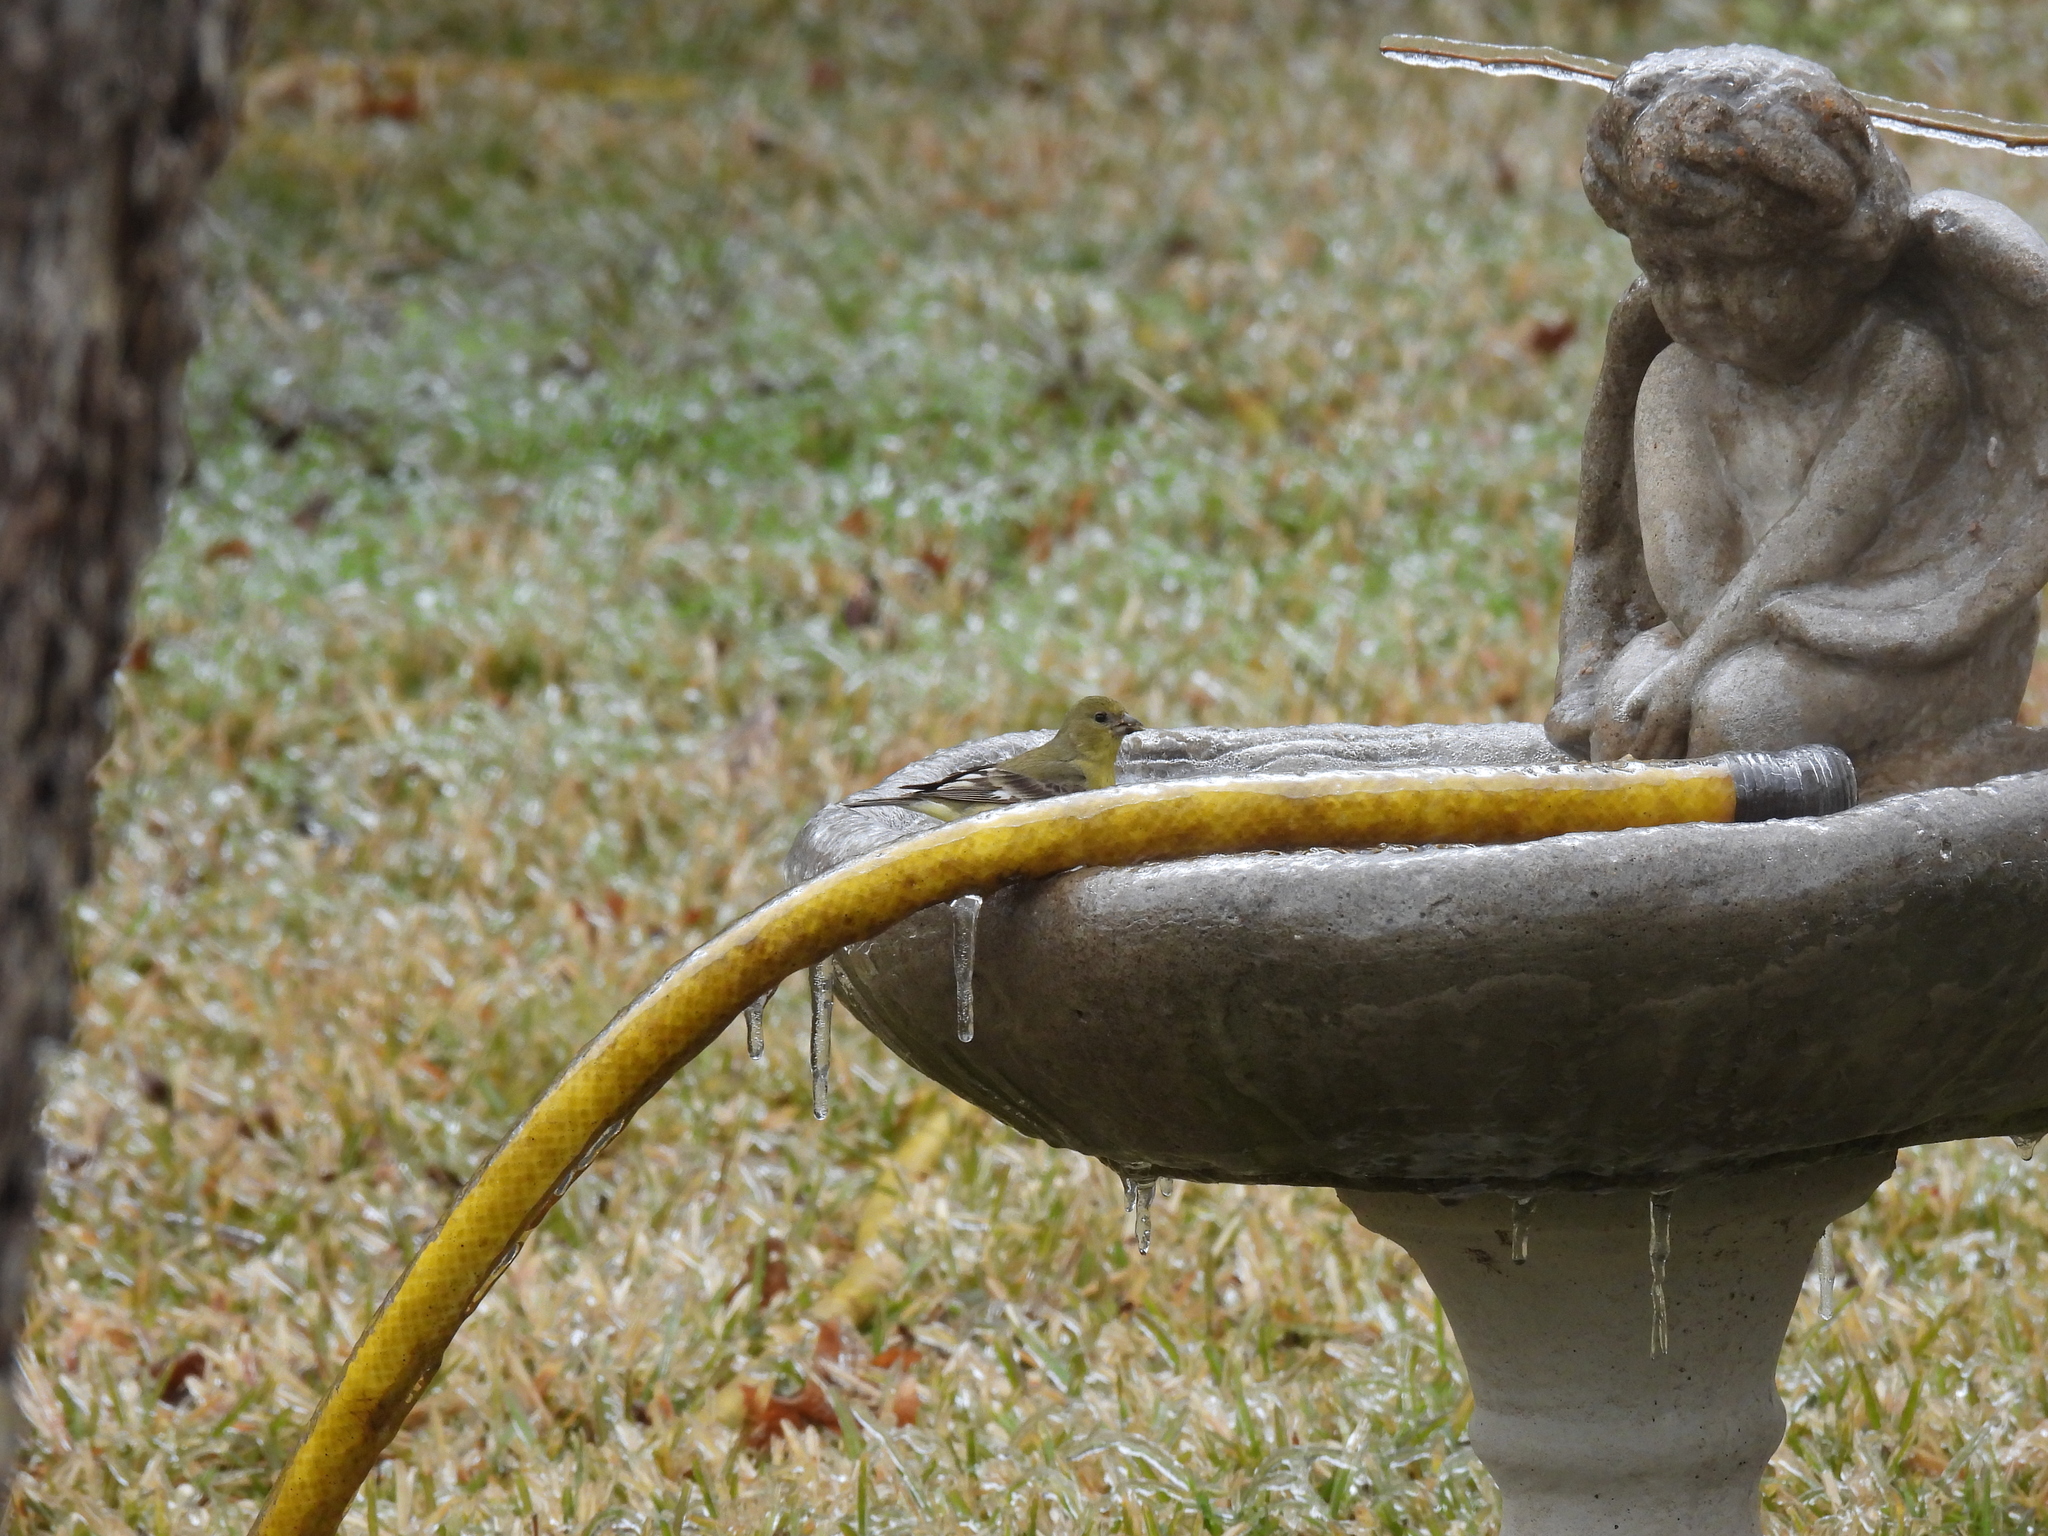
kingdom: Animalia
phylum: Chordata
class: Aves
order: Passeriformes
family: Fringillidae
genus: Spinus
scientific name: Spinus psaltria
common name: Lesser goldfinch
